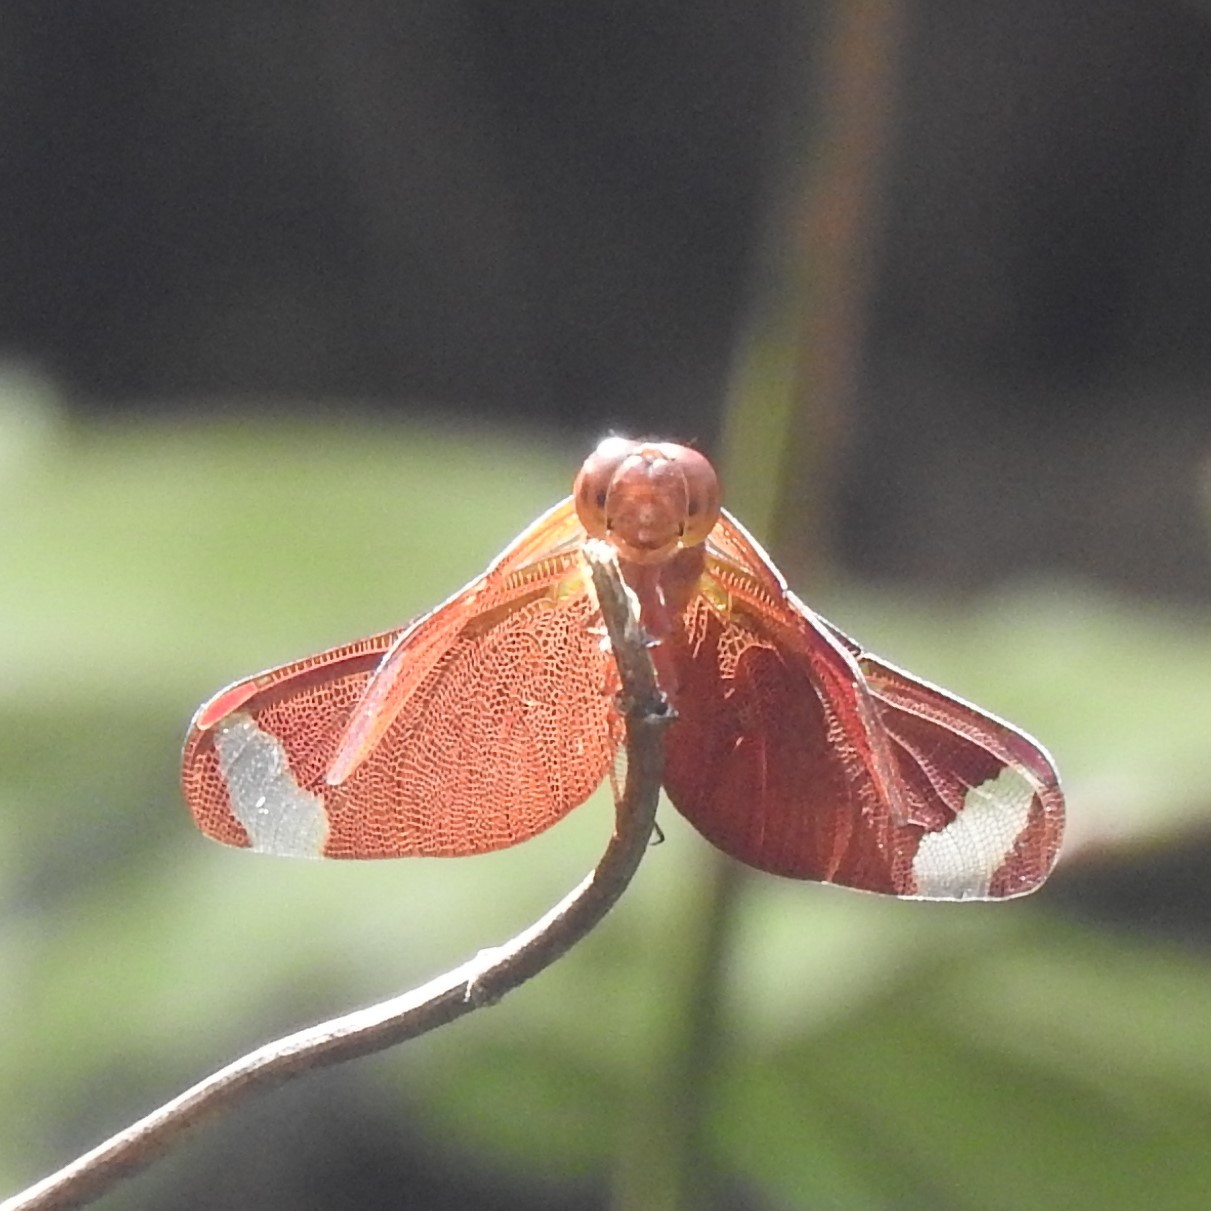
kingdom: Animalia
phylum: Arthropoda
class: Insecta
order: Odonata
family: Libellulidae
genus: Neurothemis
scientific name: Neurothemis fulvia
